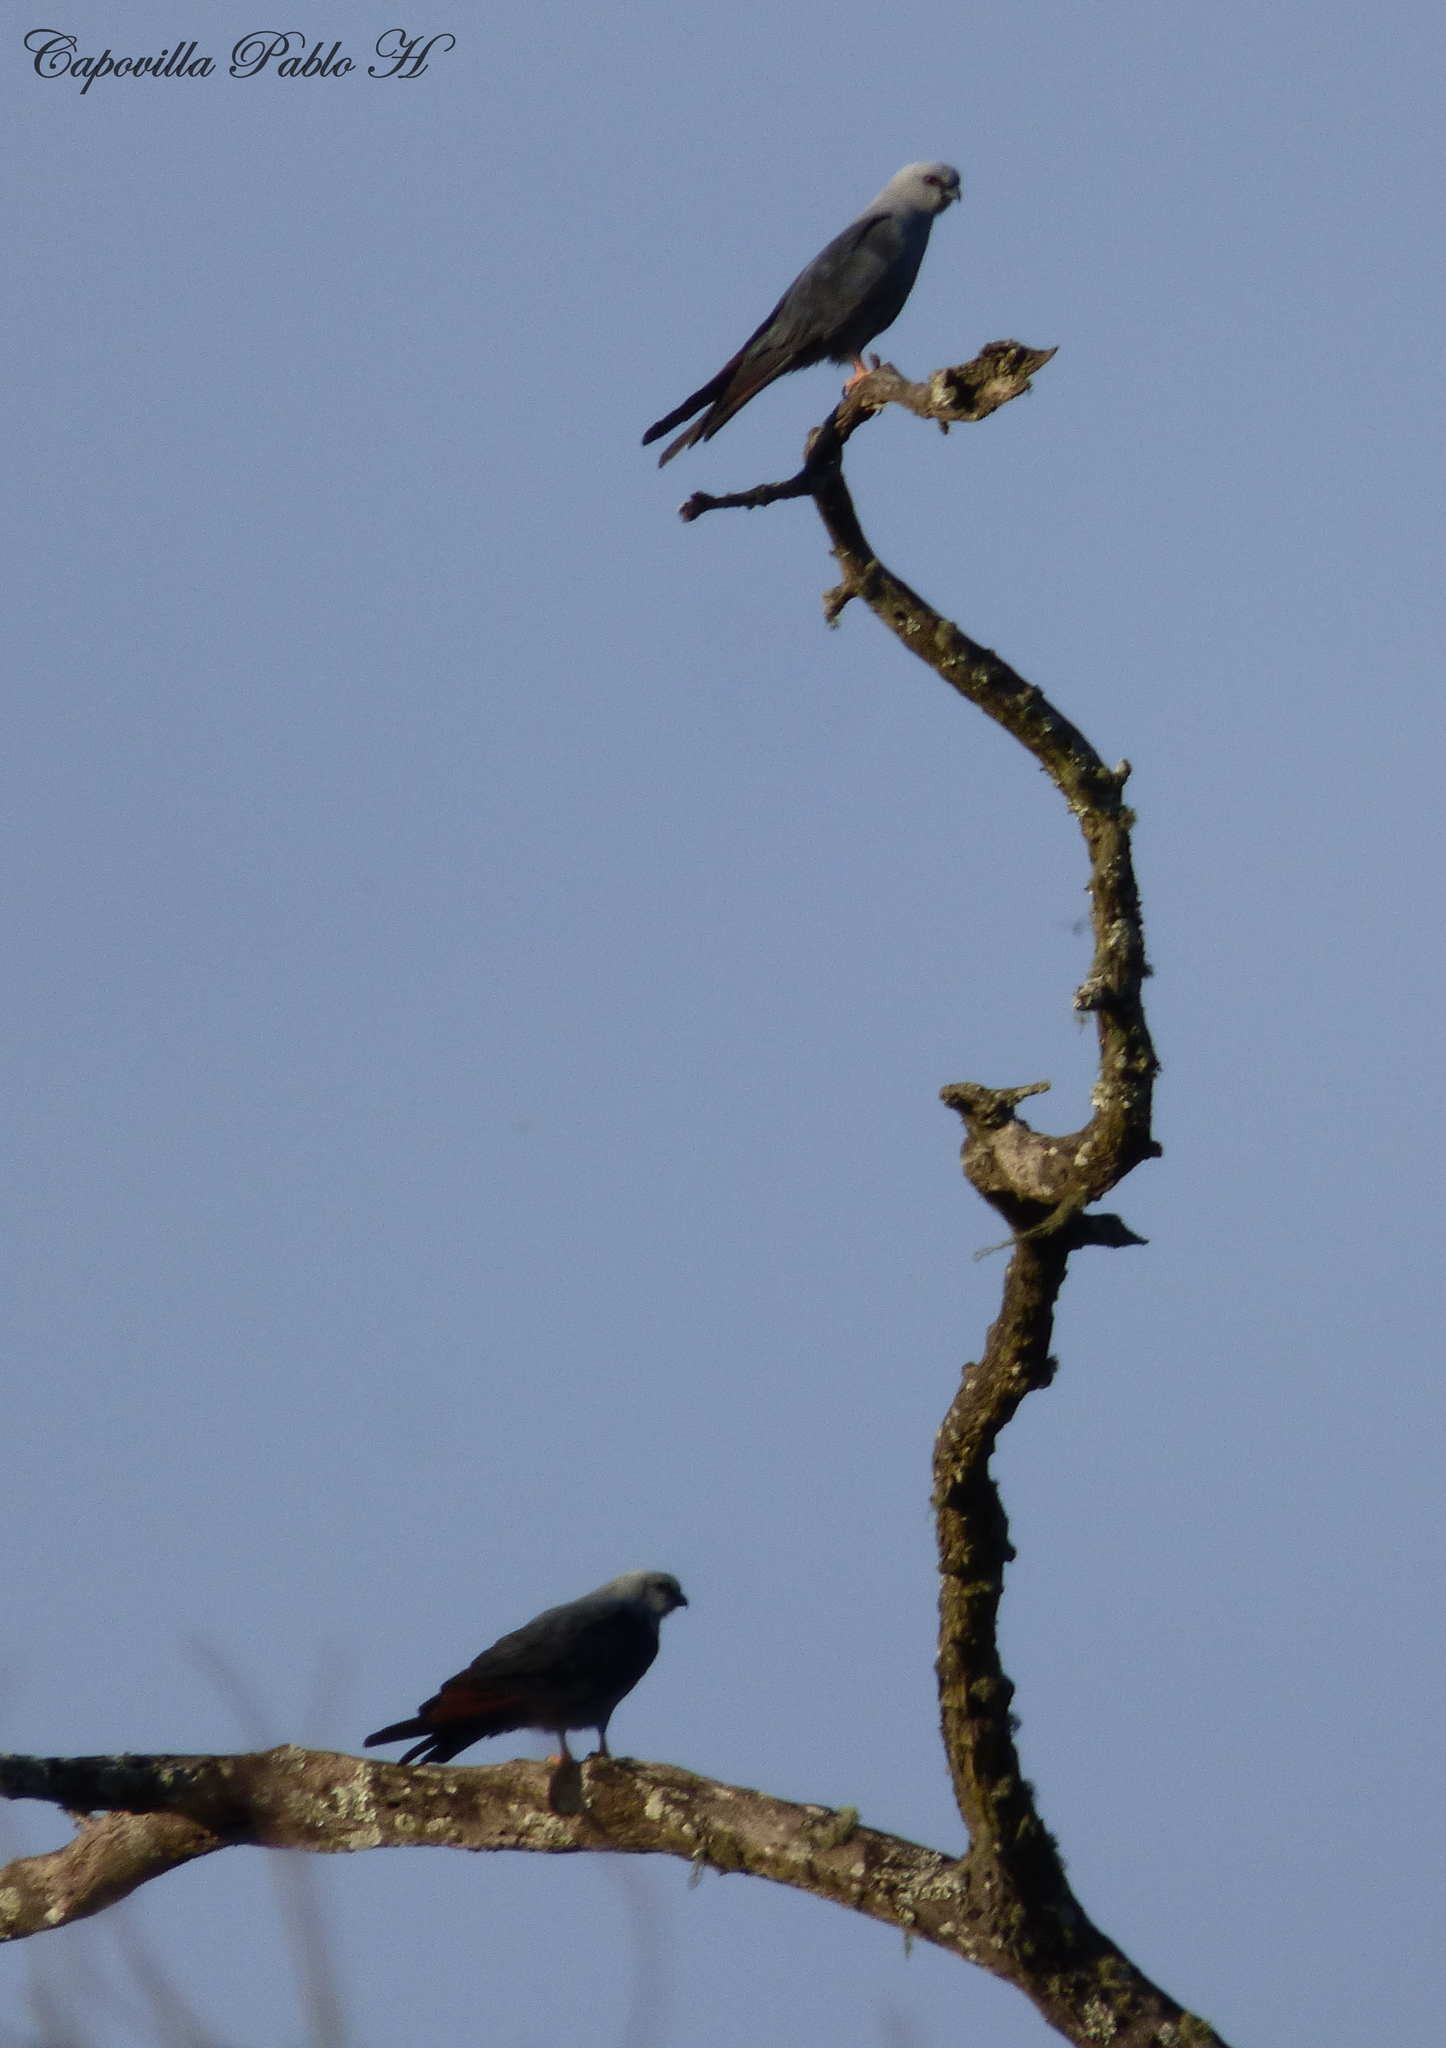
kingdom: Animalia
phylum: Chordata
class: Aves
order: Accipitriformes
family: Accipitridae
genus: Ictinia
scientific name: Ictinia plumbea
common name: Plumbeous kite
